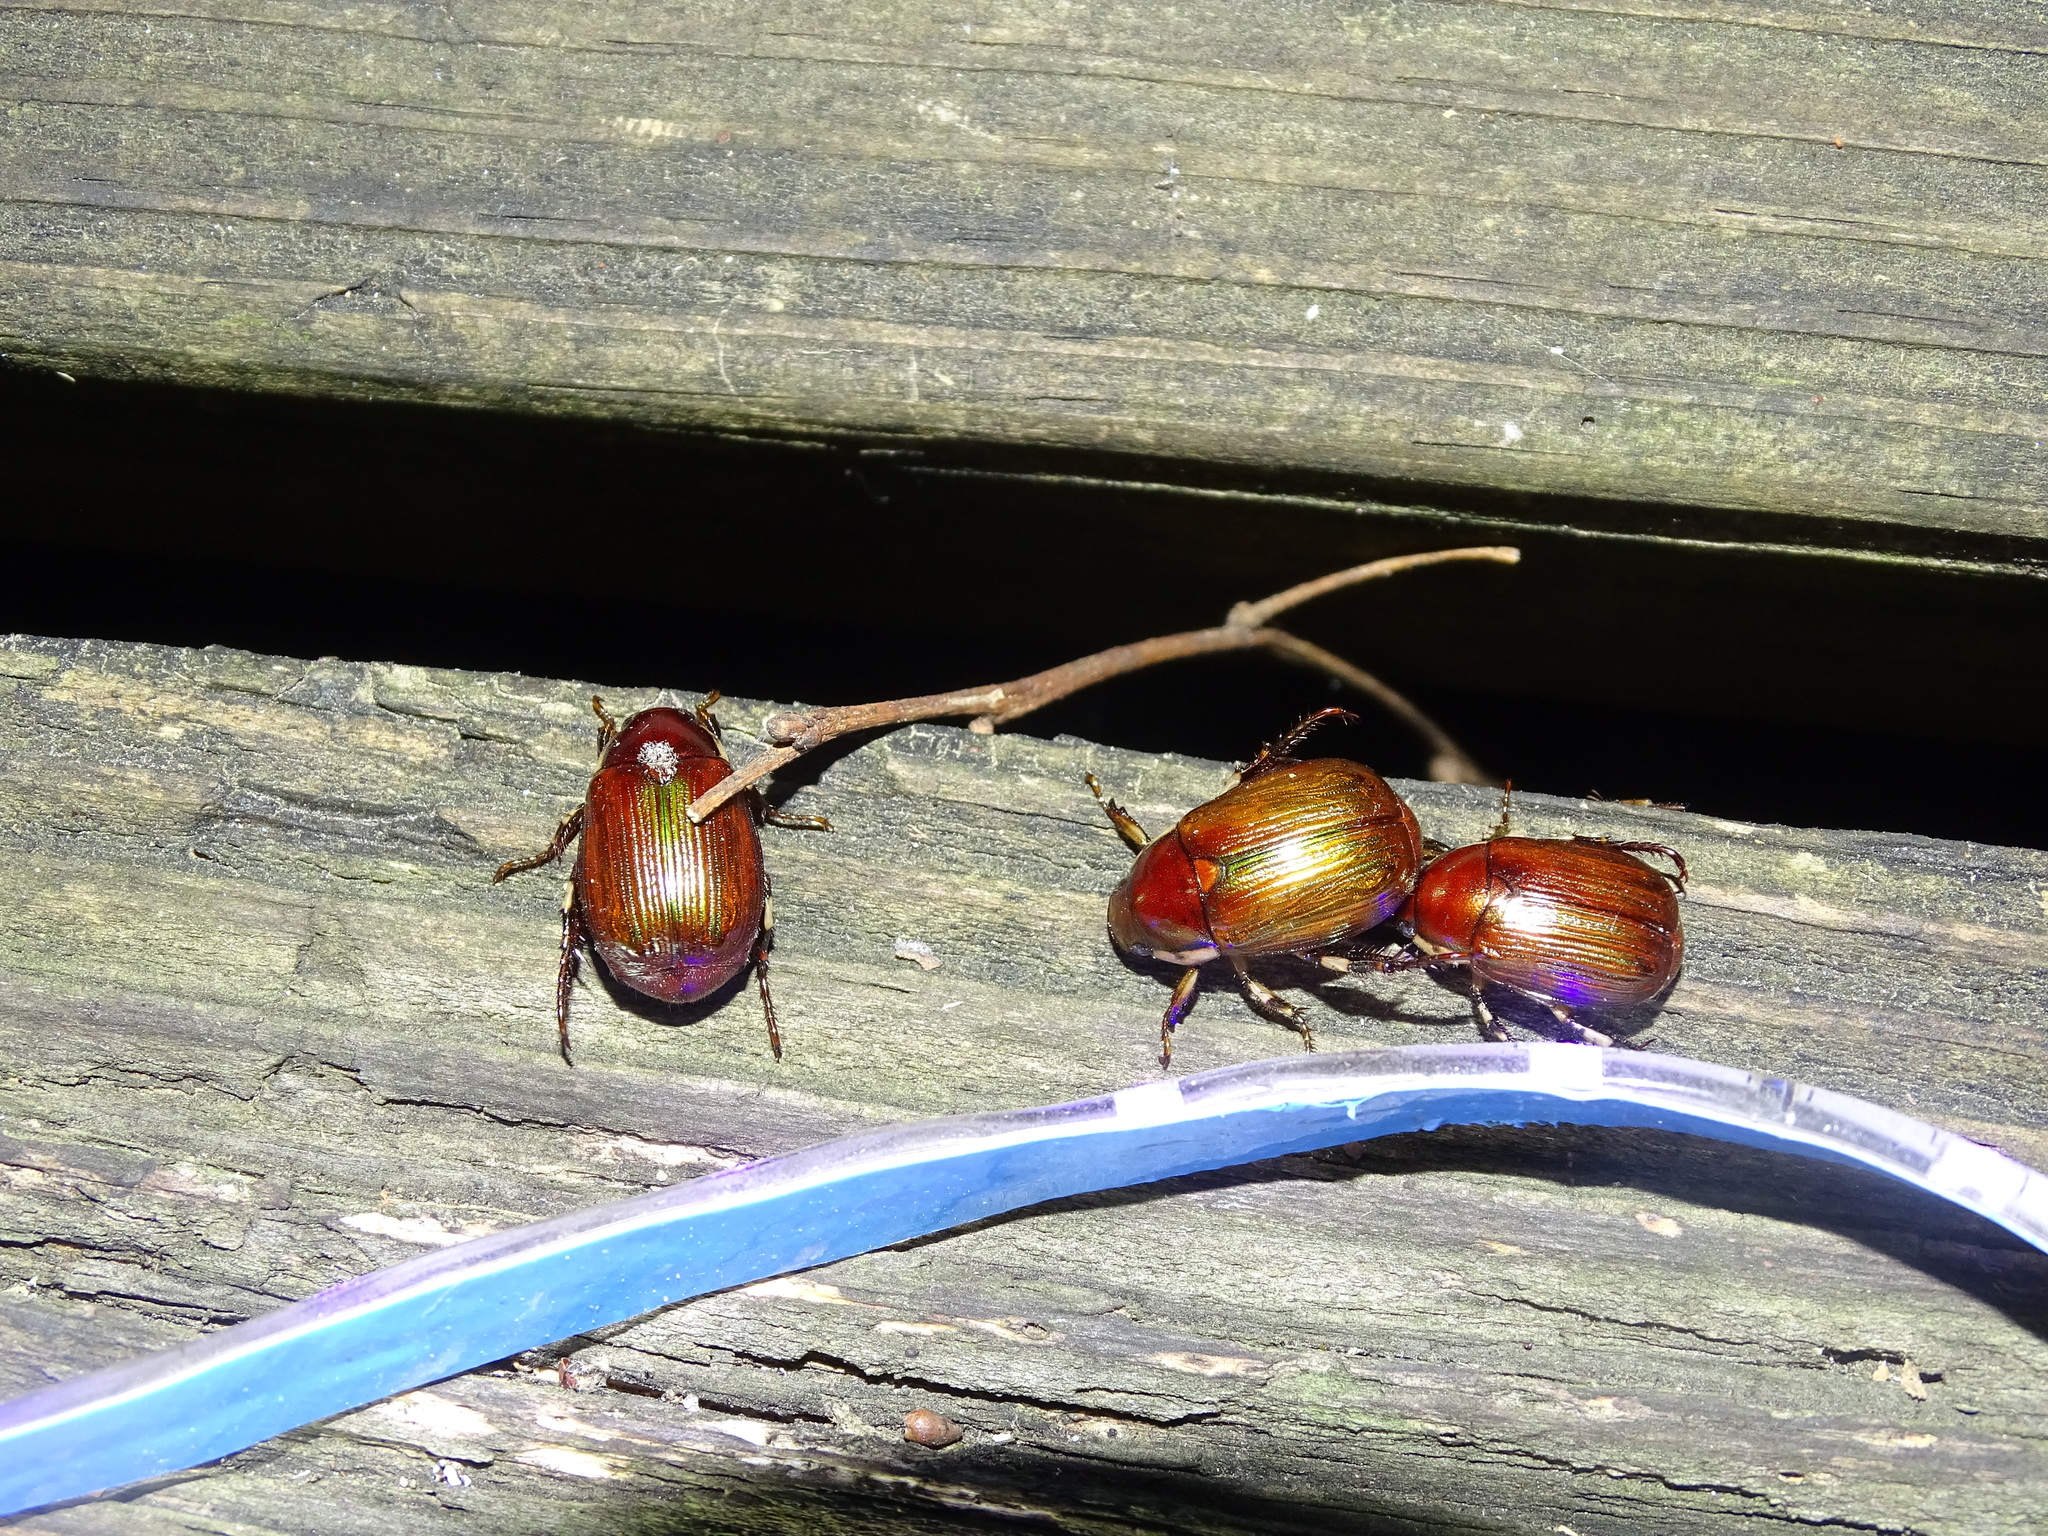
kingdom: Animalia
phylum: Arthropoda
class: Insecta
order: Coleoptera
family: Scarabaeidae
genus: Callistethus
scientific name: Callistethus marginatus
